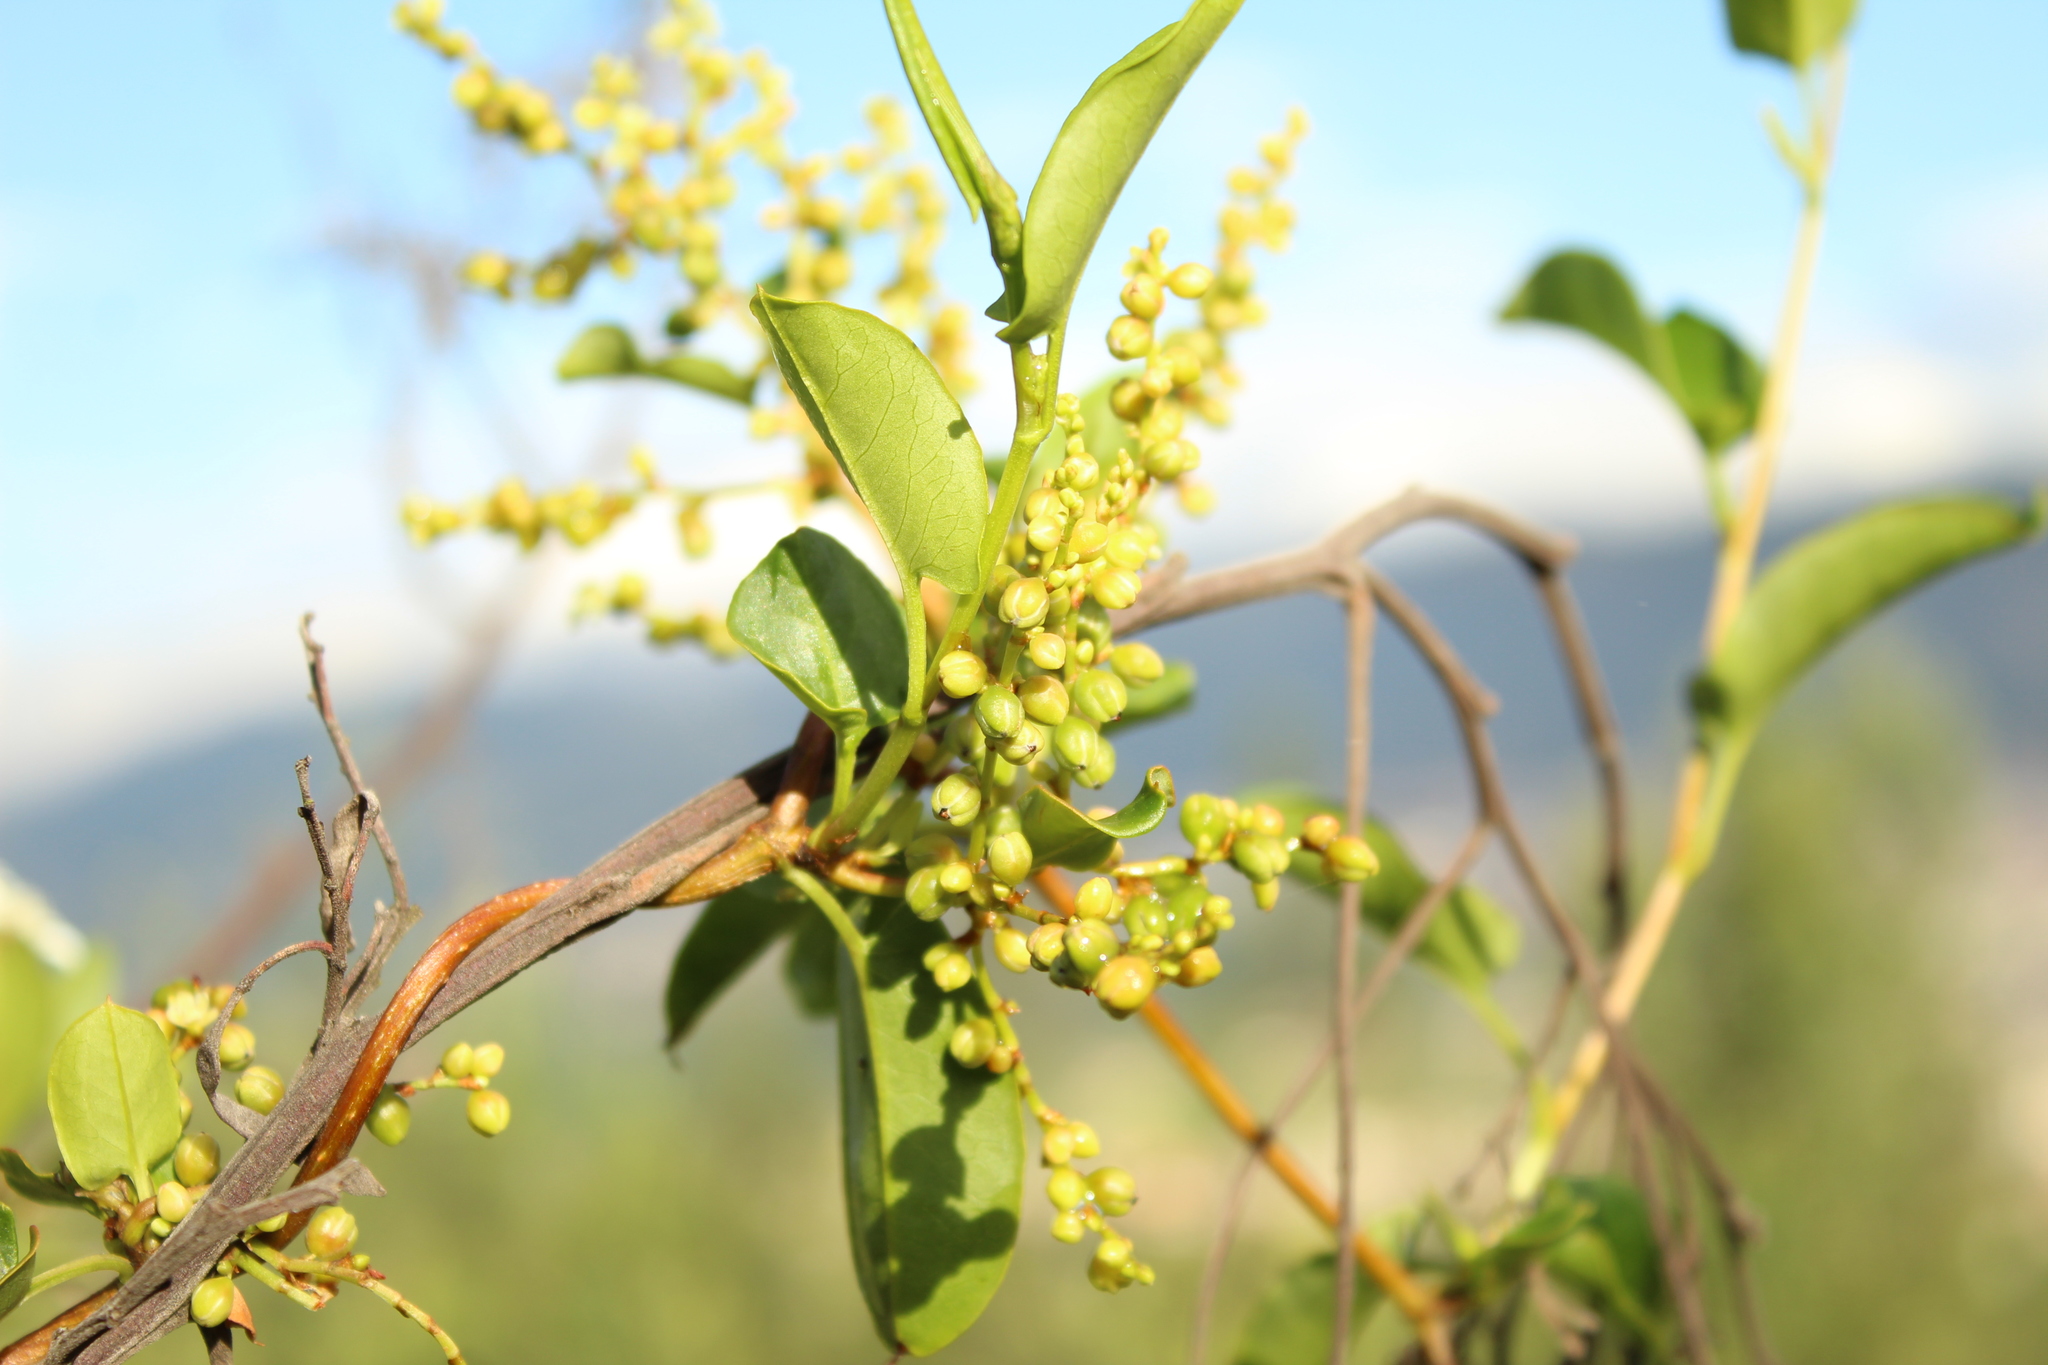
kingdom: Plantae
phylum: Tracheophyta
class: Magnoliopsida
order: Caryophyllales
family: Polygonaceae
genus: Muehlenbeckia
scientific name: Muehlenbeckia tamnifolia
